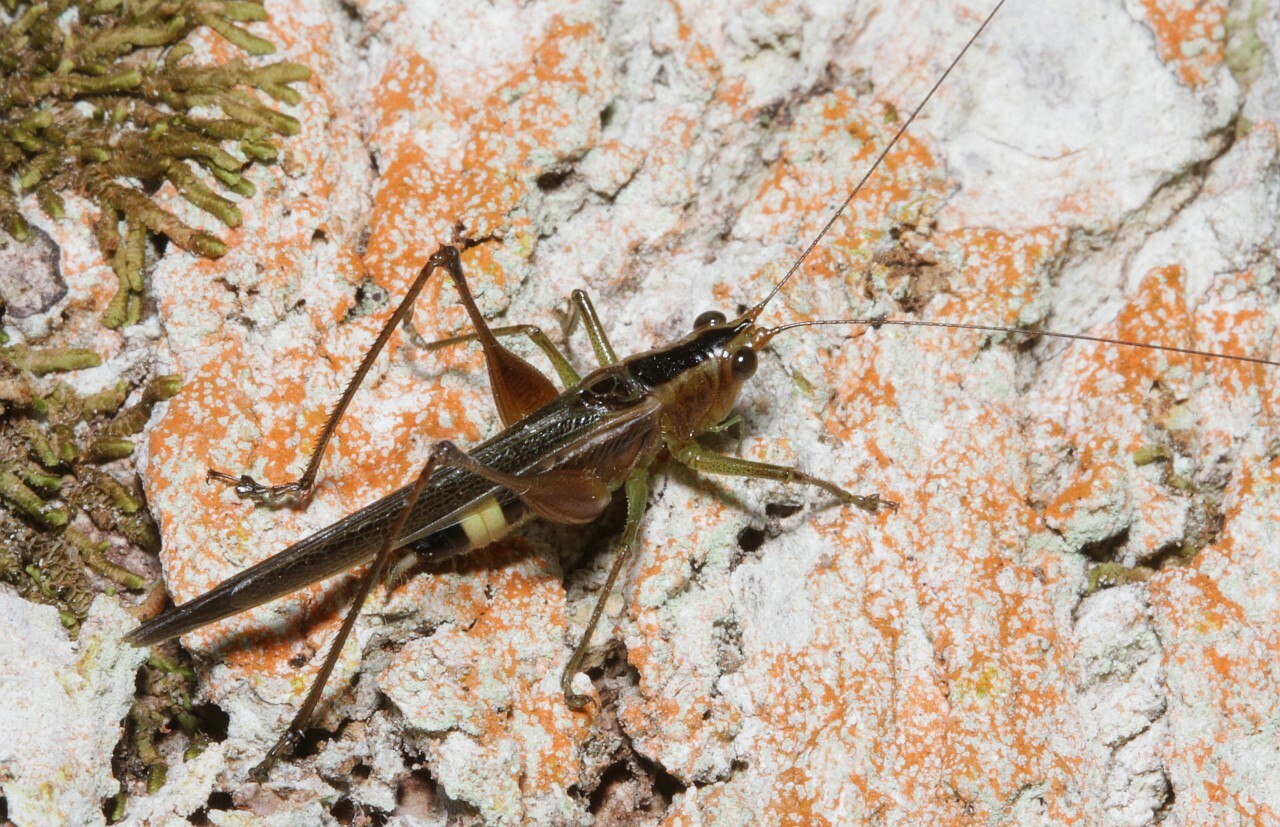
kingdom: Animalia
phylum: Arthropoda
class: Insecta
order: Orthoptera
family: Tettigoniidae
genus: Conocephalus
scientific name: Conocephalus versicolor
